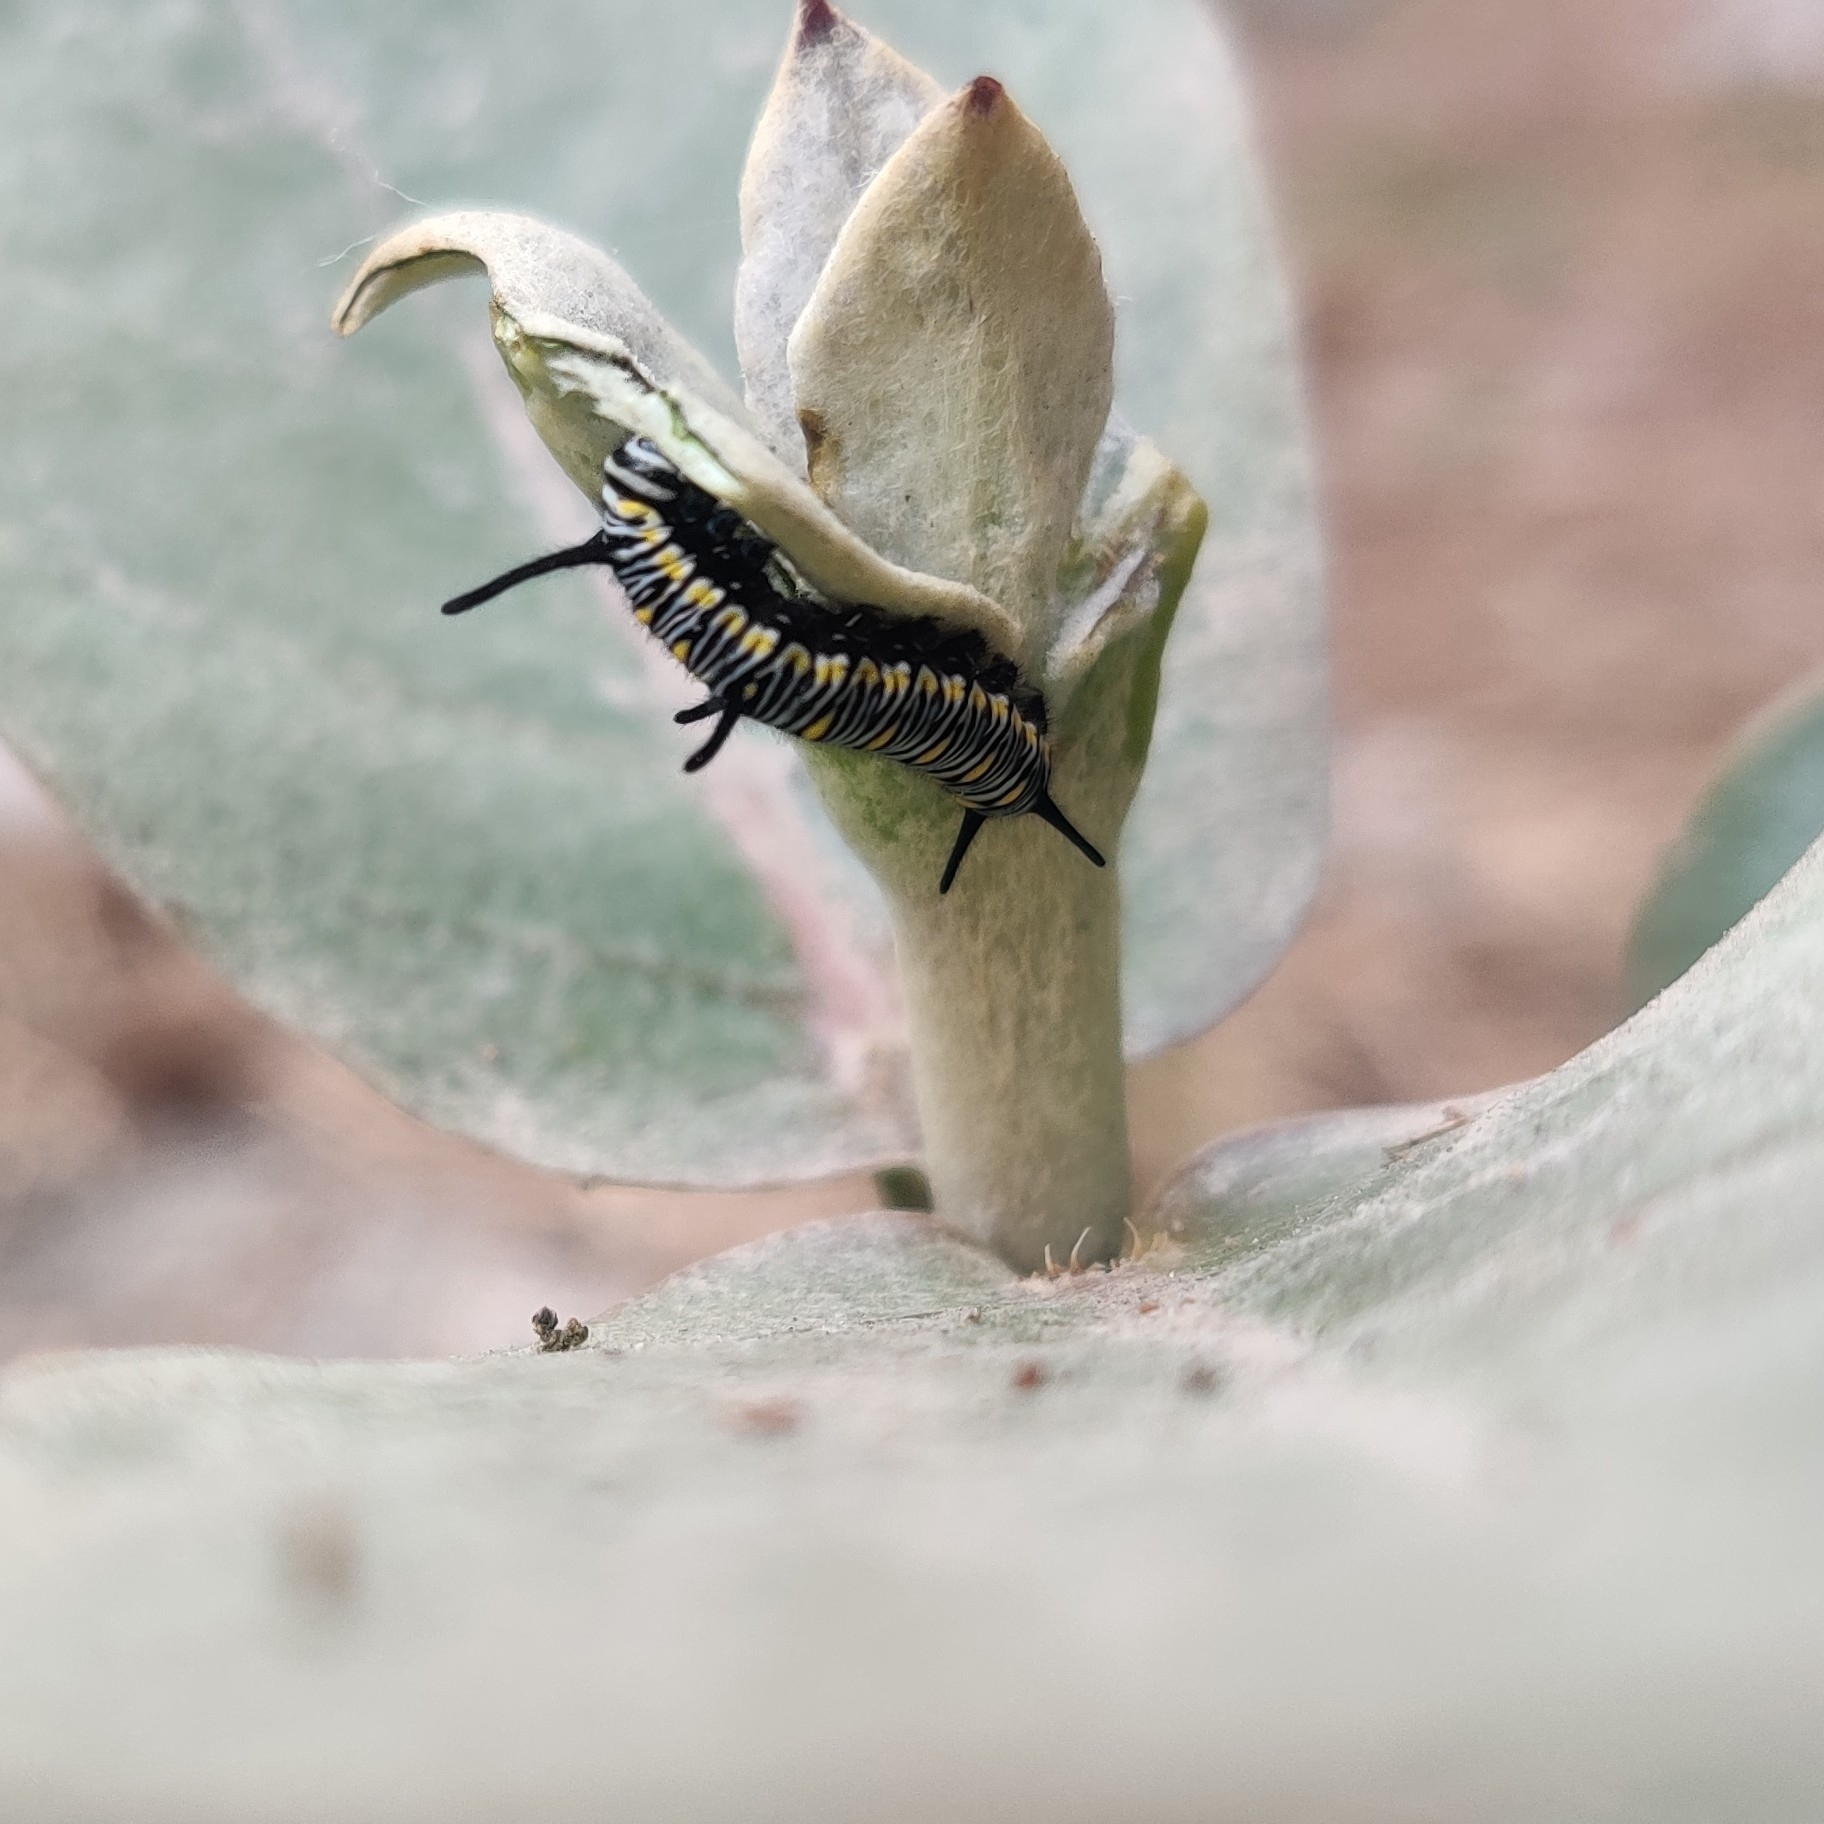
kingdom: Animalia
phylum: Arthropoda
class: Insecta
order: Lepidoptera
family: Nymphalidae
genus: Danaus
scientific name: Danaus chrysippus
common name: Plain tiger
